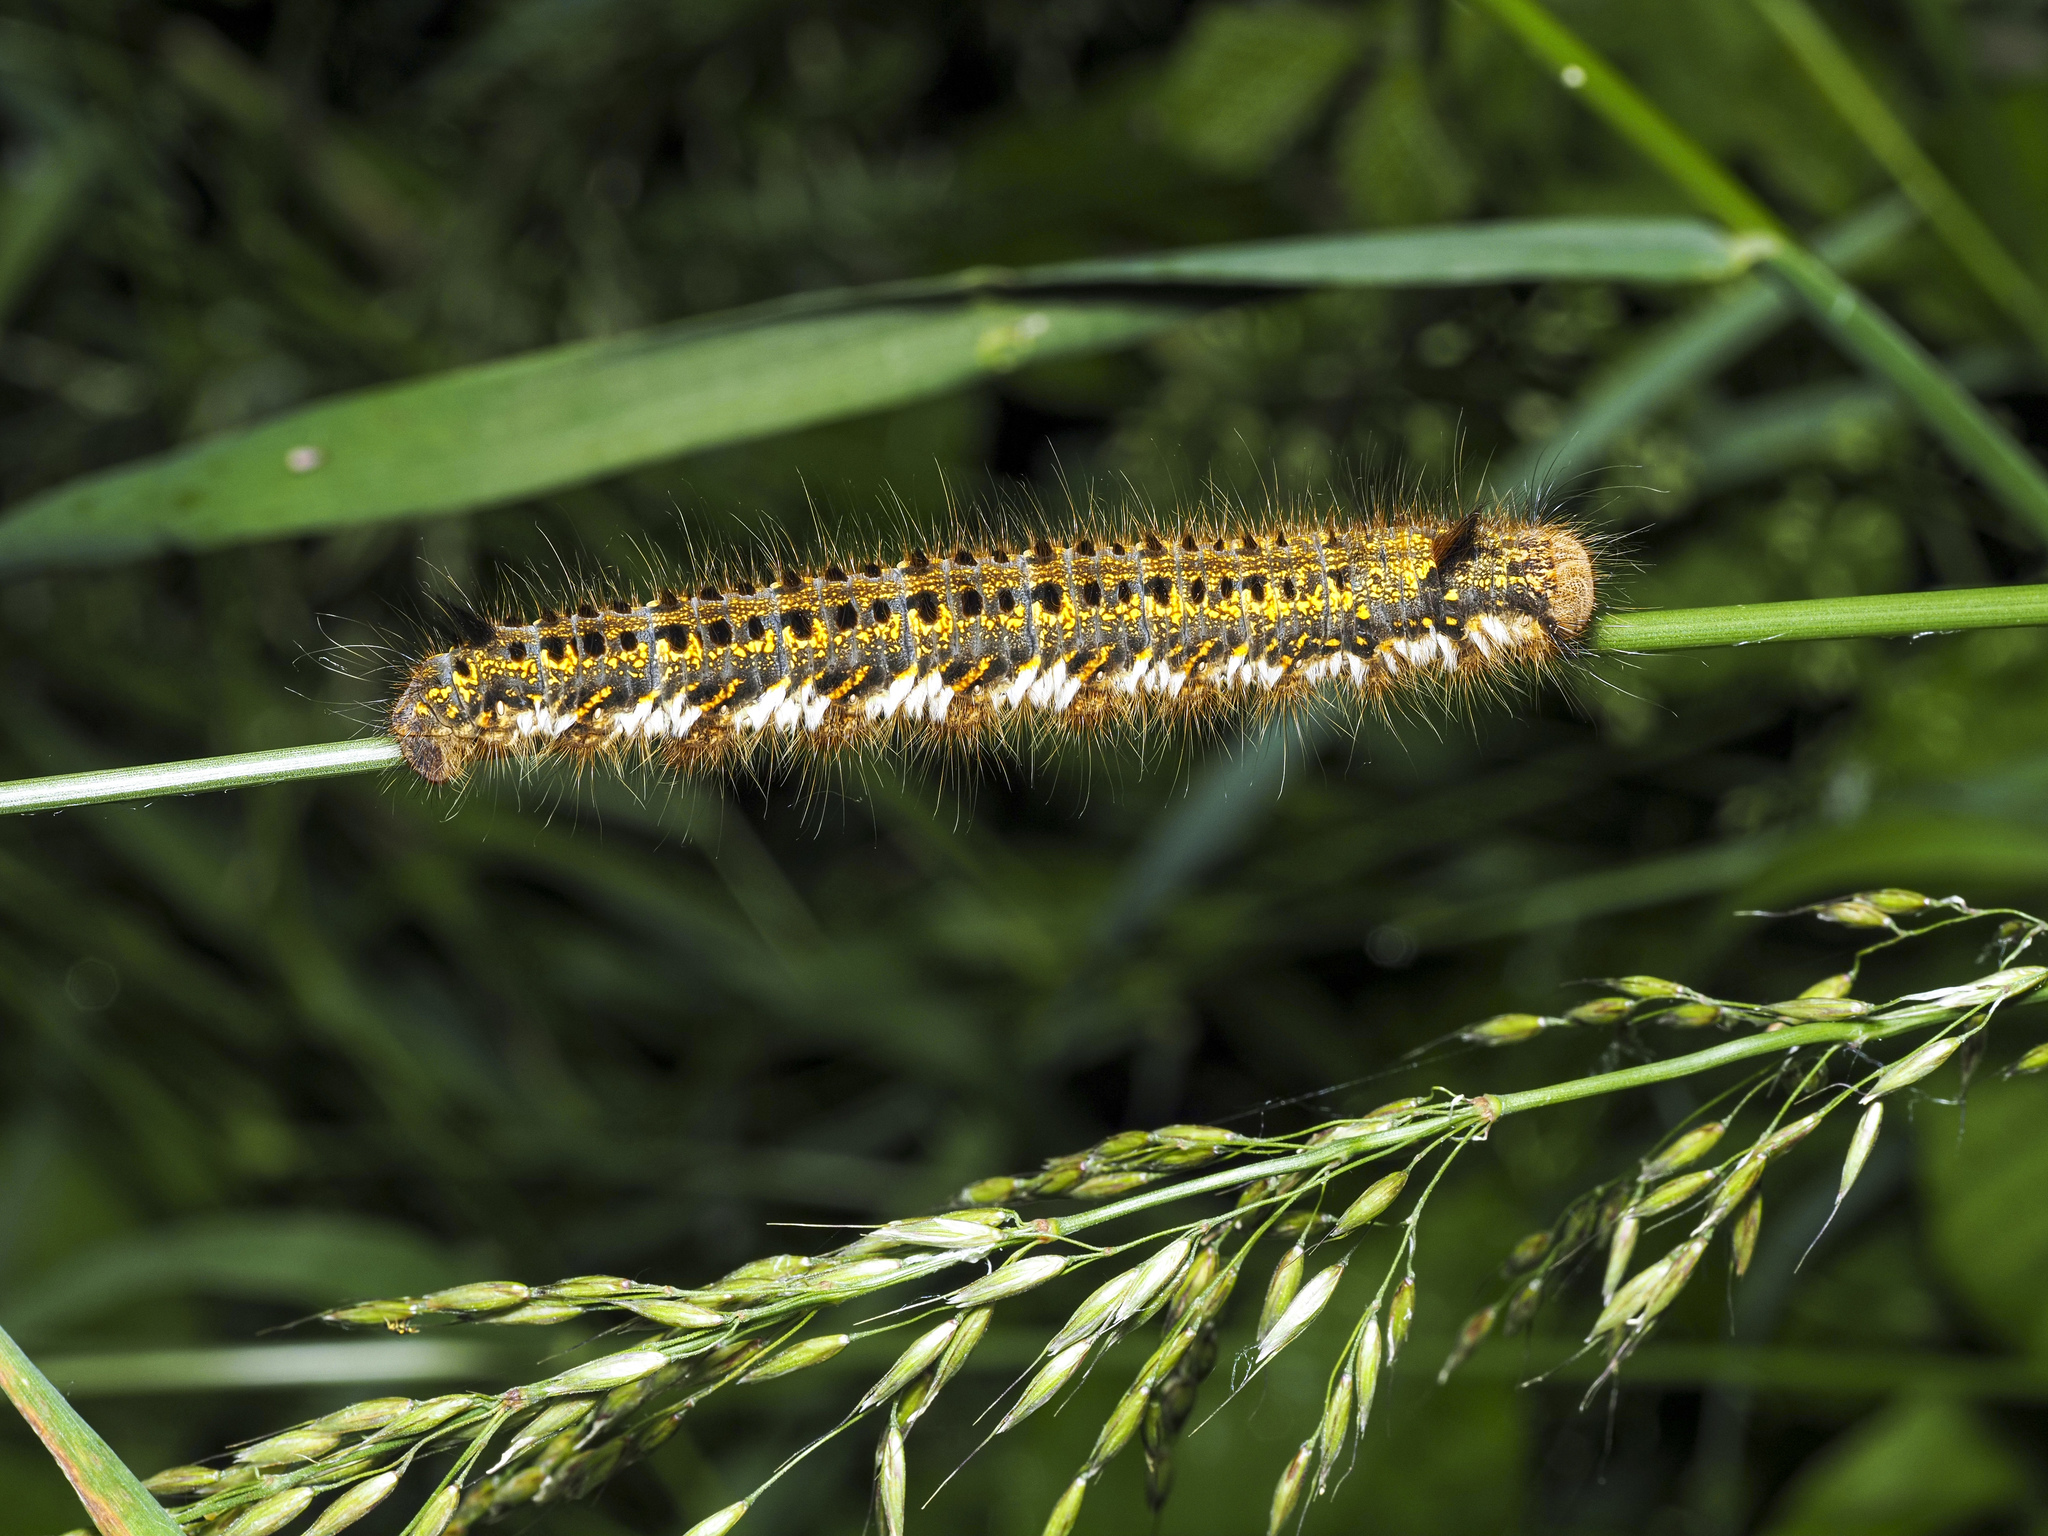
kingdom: Animalia
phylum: Arthropoda
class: Insecta
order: Lepidoptera
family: Lasiocampidae
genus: Euthrix
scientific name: Euthrix potatoria
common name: Drinker
